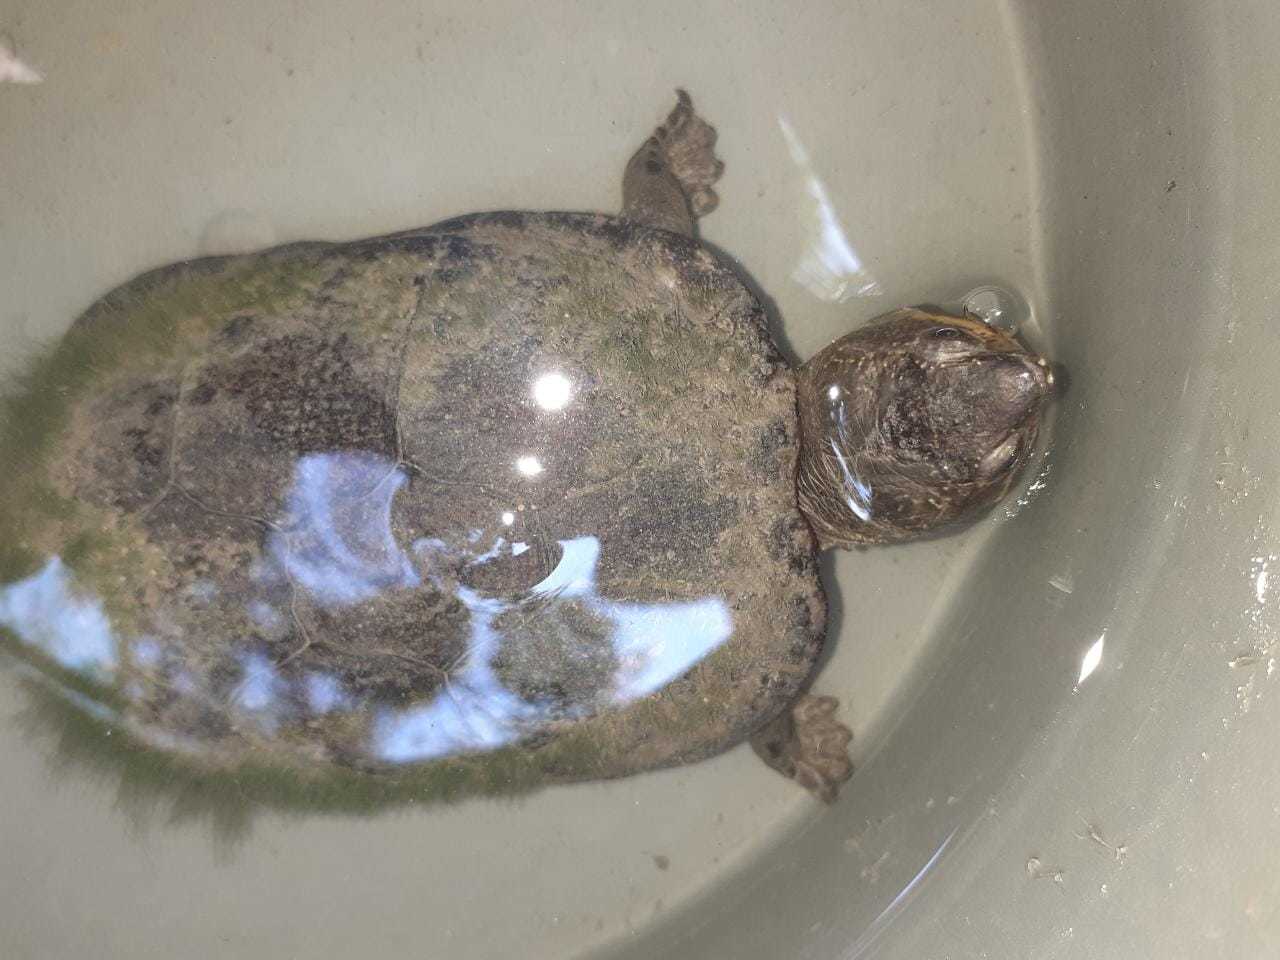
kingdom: Animalia
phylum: Chordata
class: Testudines
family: Kinosternidae
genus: Kinosternon
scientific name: Kinosternon leucostomum
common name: White-lipped mud turtle
